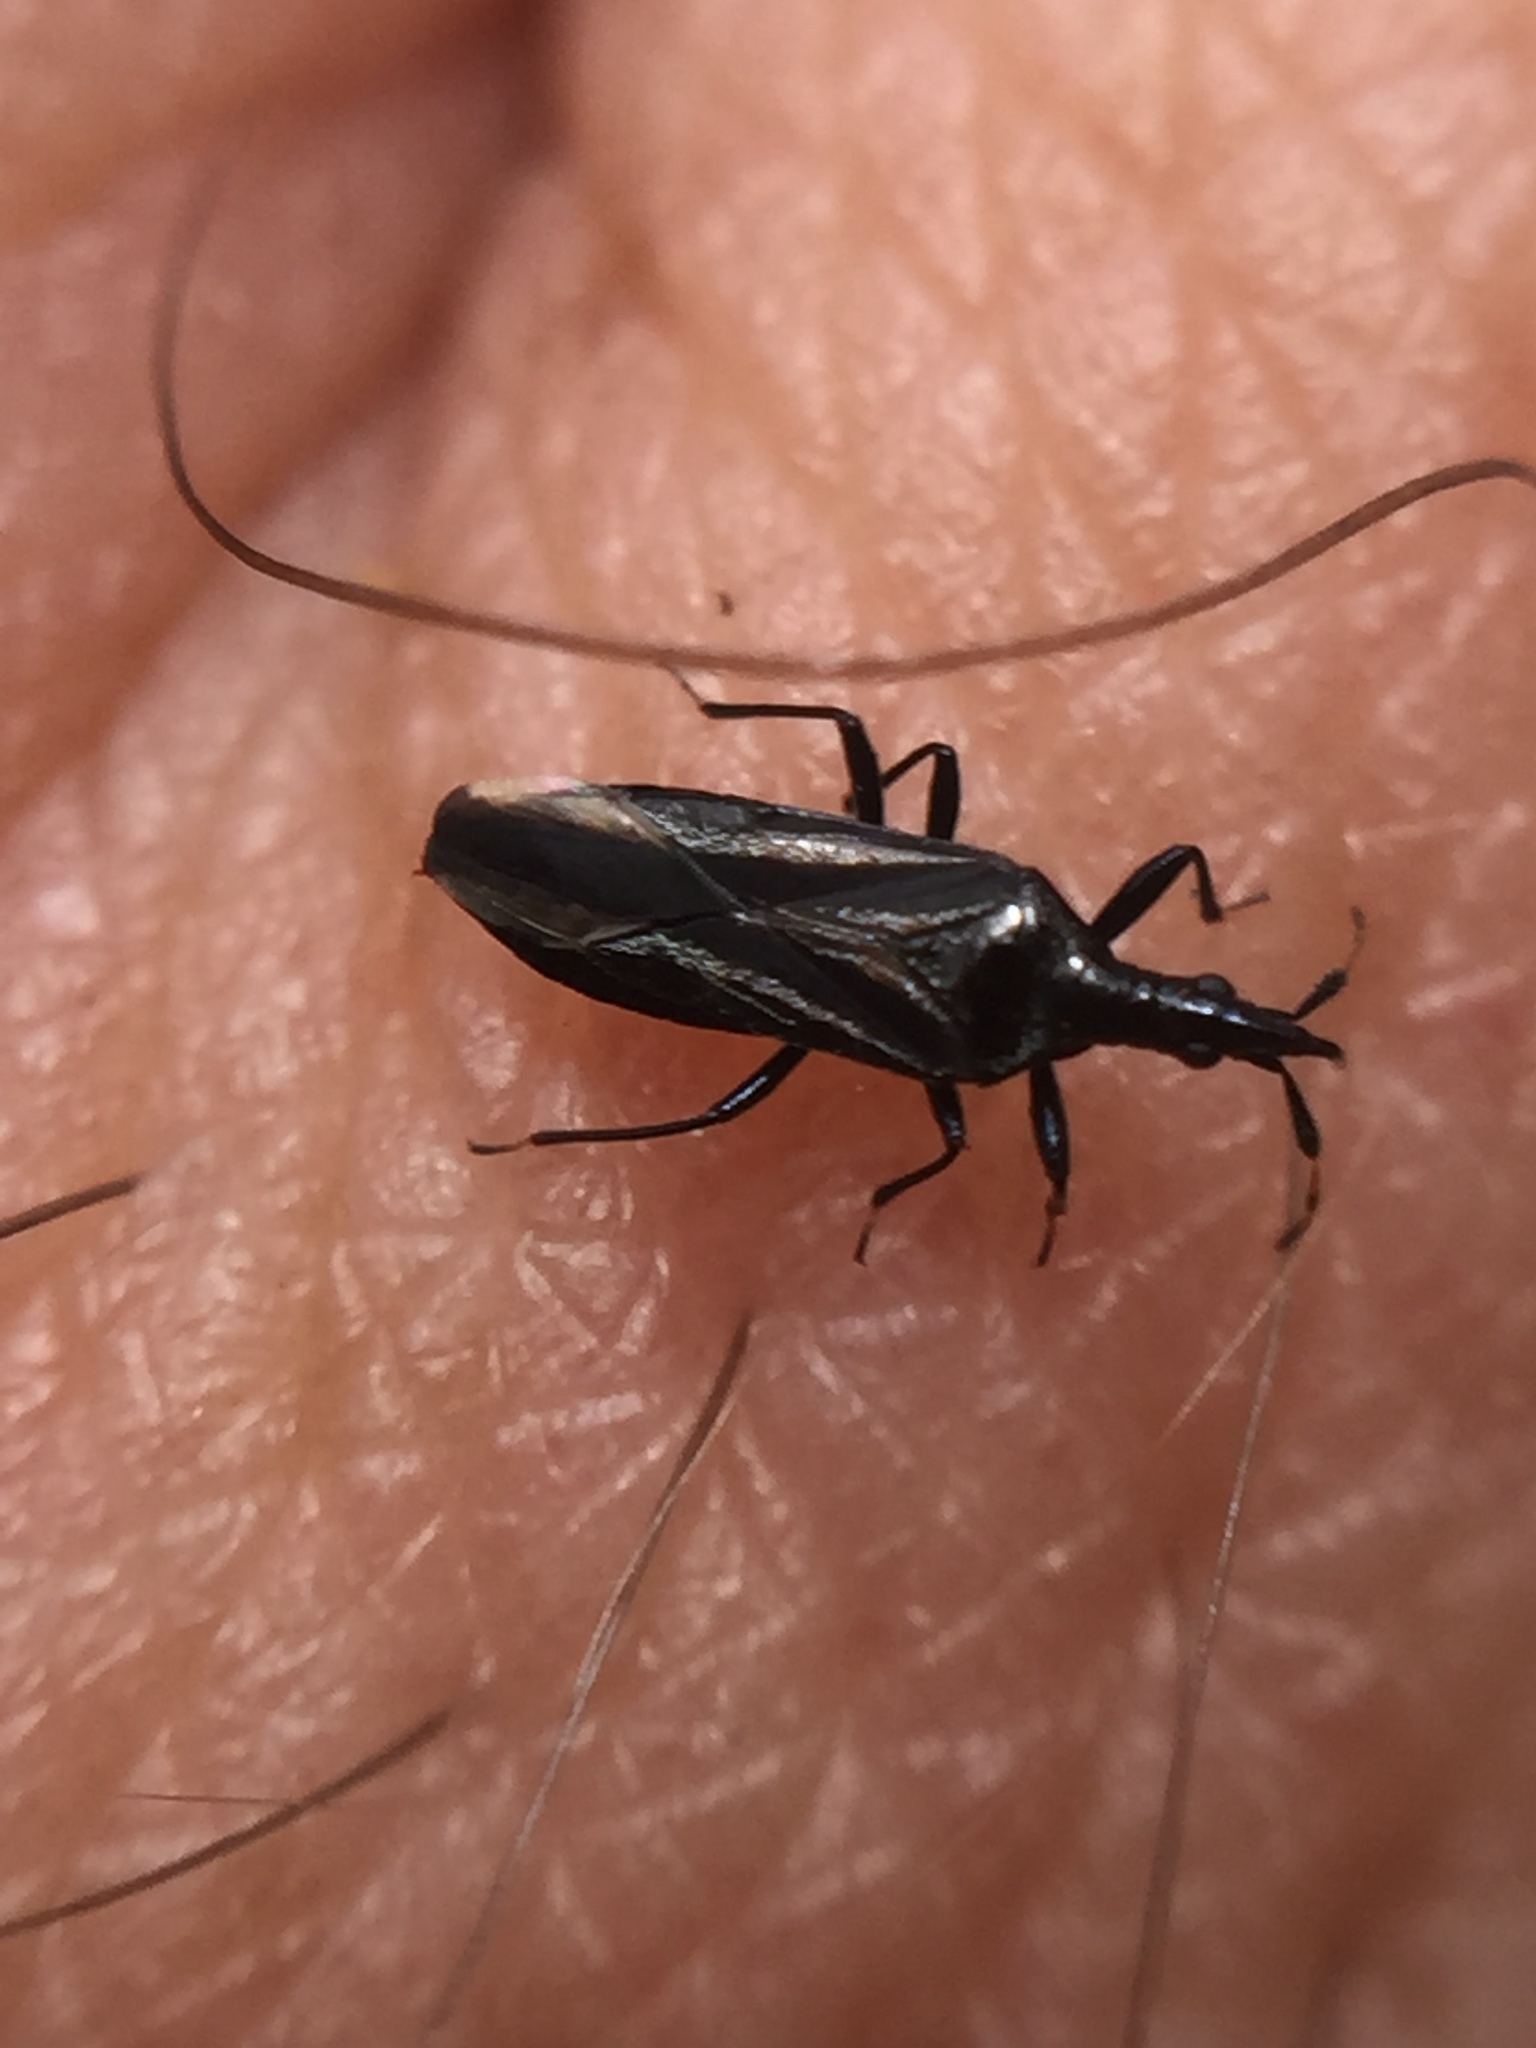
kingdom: Animalia
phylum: Arthropoda
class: Insecta
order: Hemiptera
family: Anthocoridae
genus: Macrotrachelia
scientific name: Macrotrachelia nigronitens
